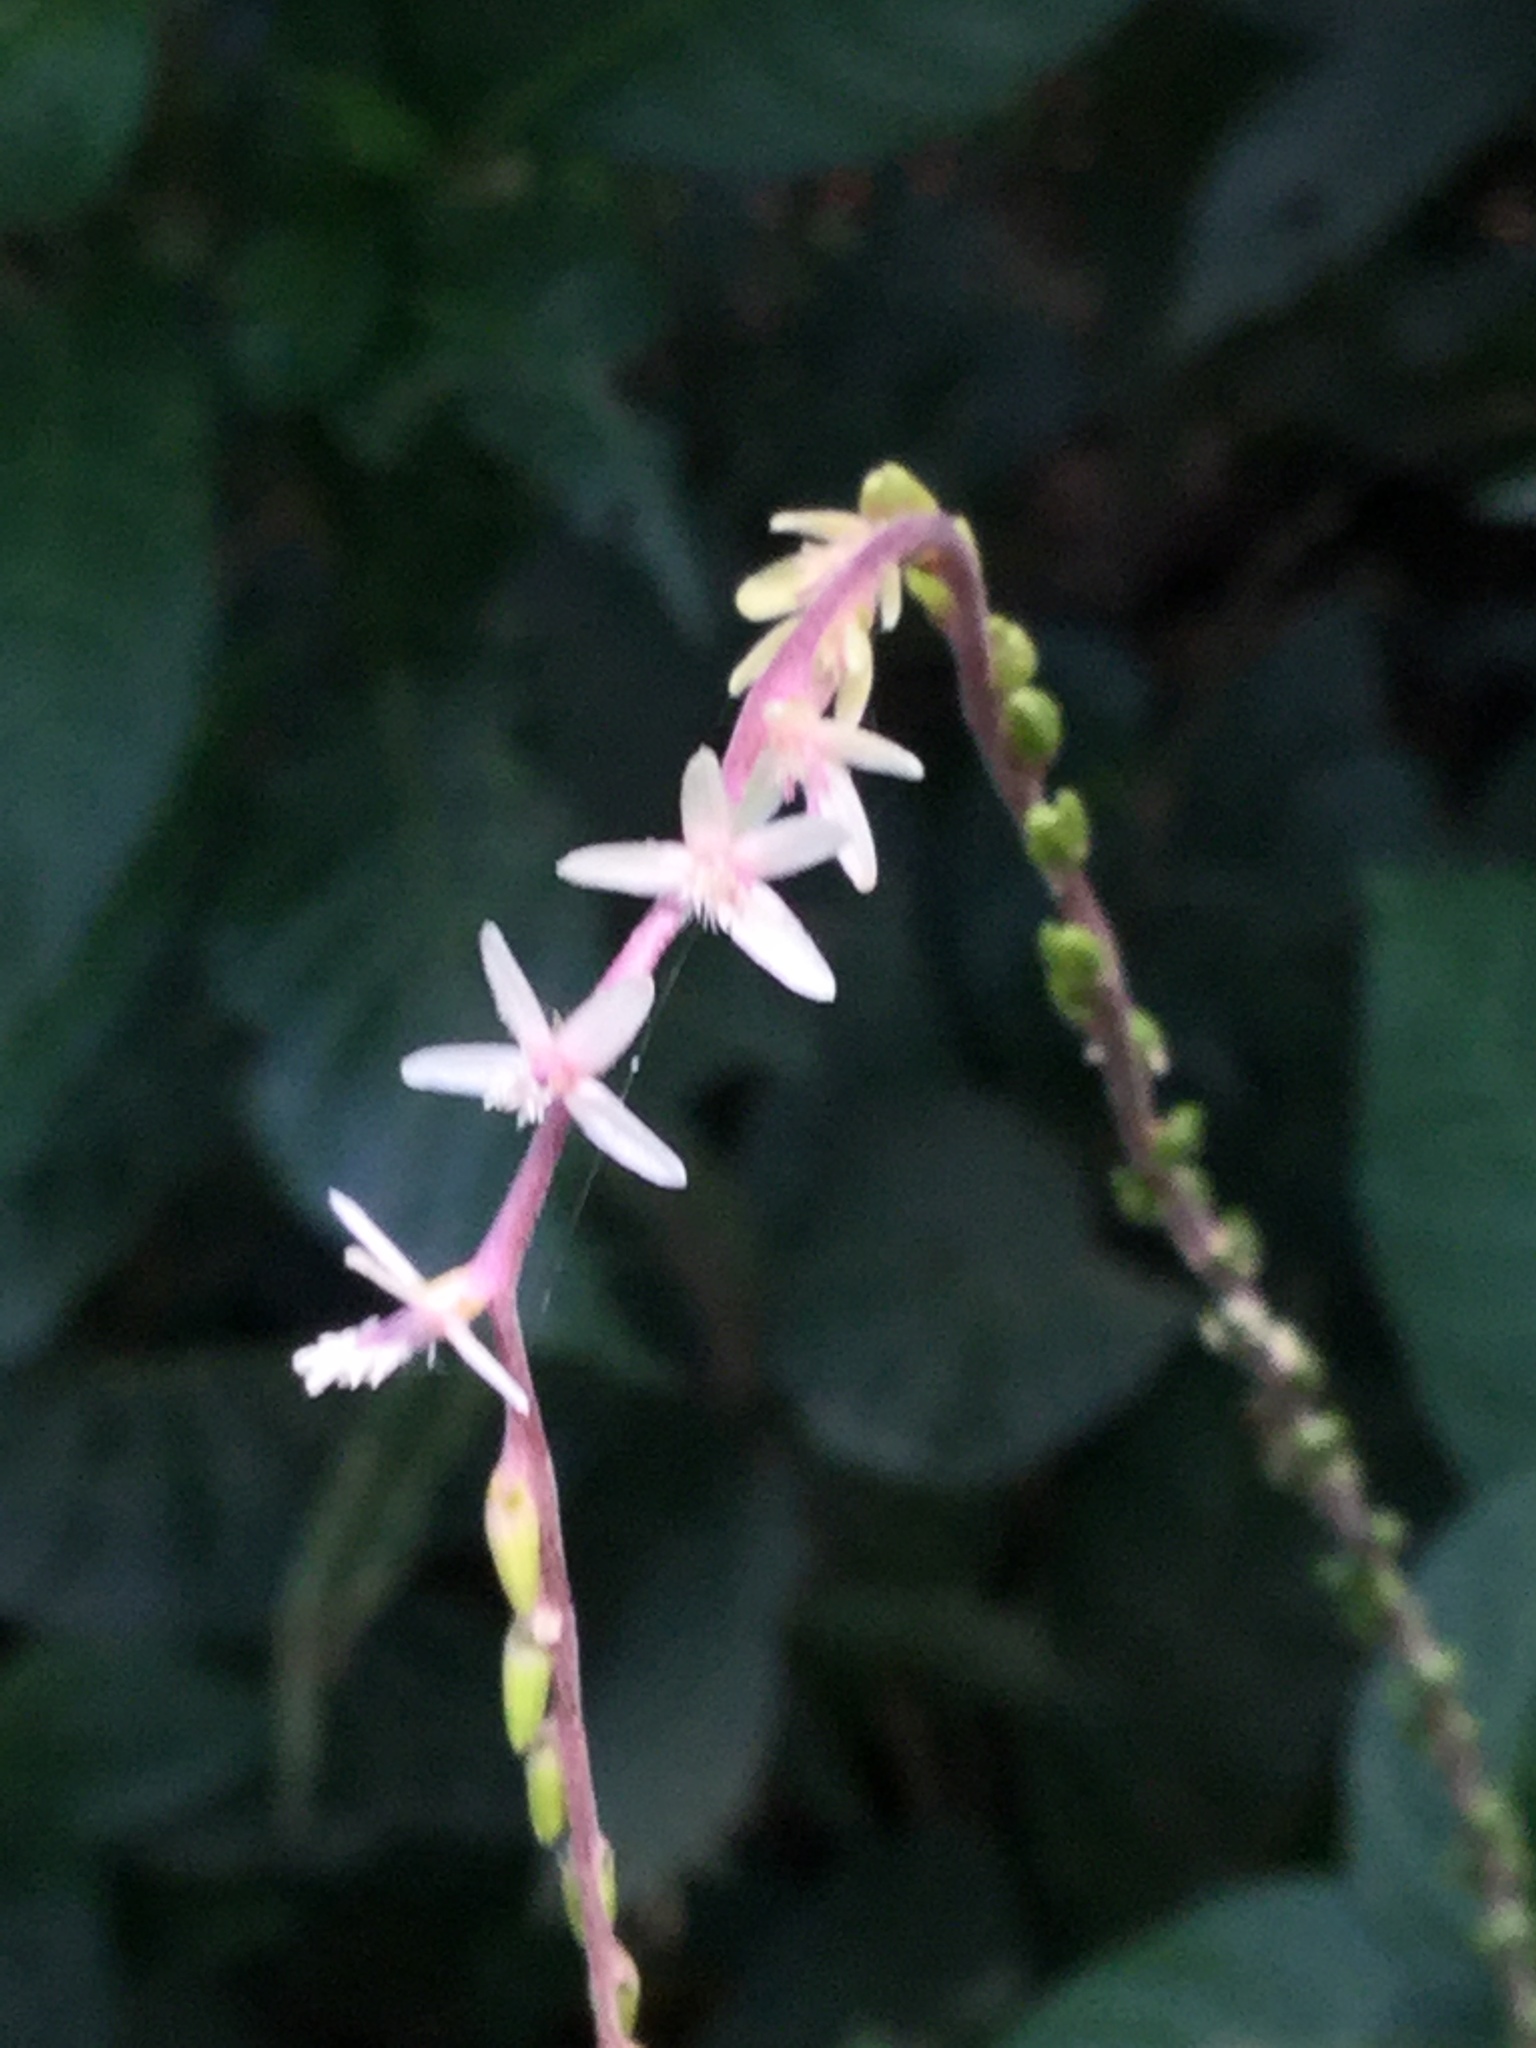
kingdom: Plantae
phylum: Tracheophyta
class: Magnoliopsida
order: Caryophyllales
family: Phytolaccaceae
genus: Petiveria
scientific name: Petiveria alliacea
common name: Garlicweed
